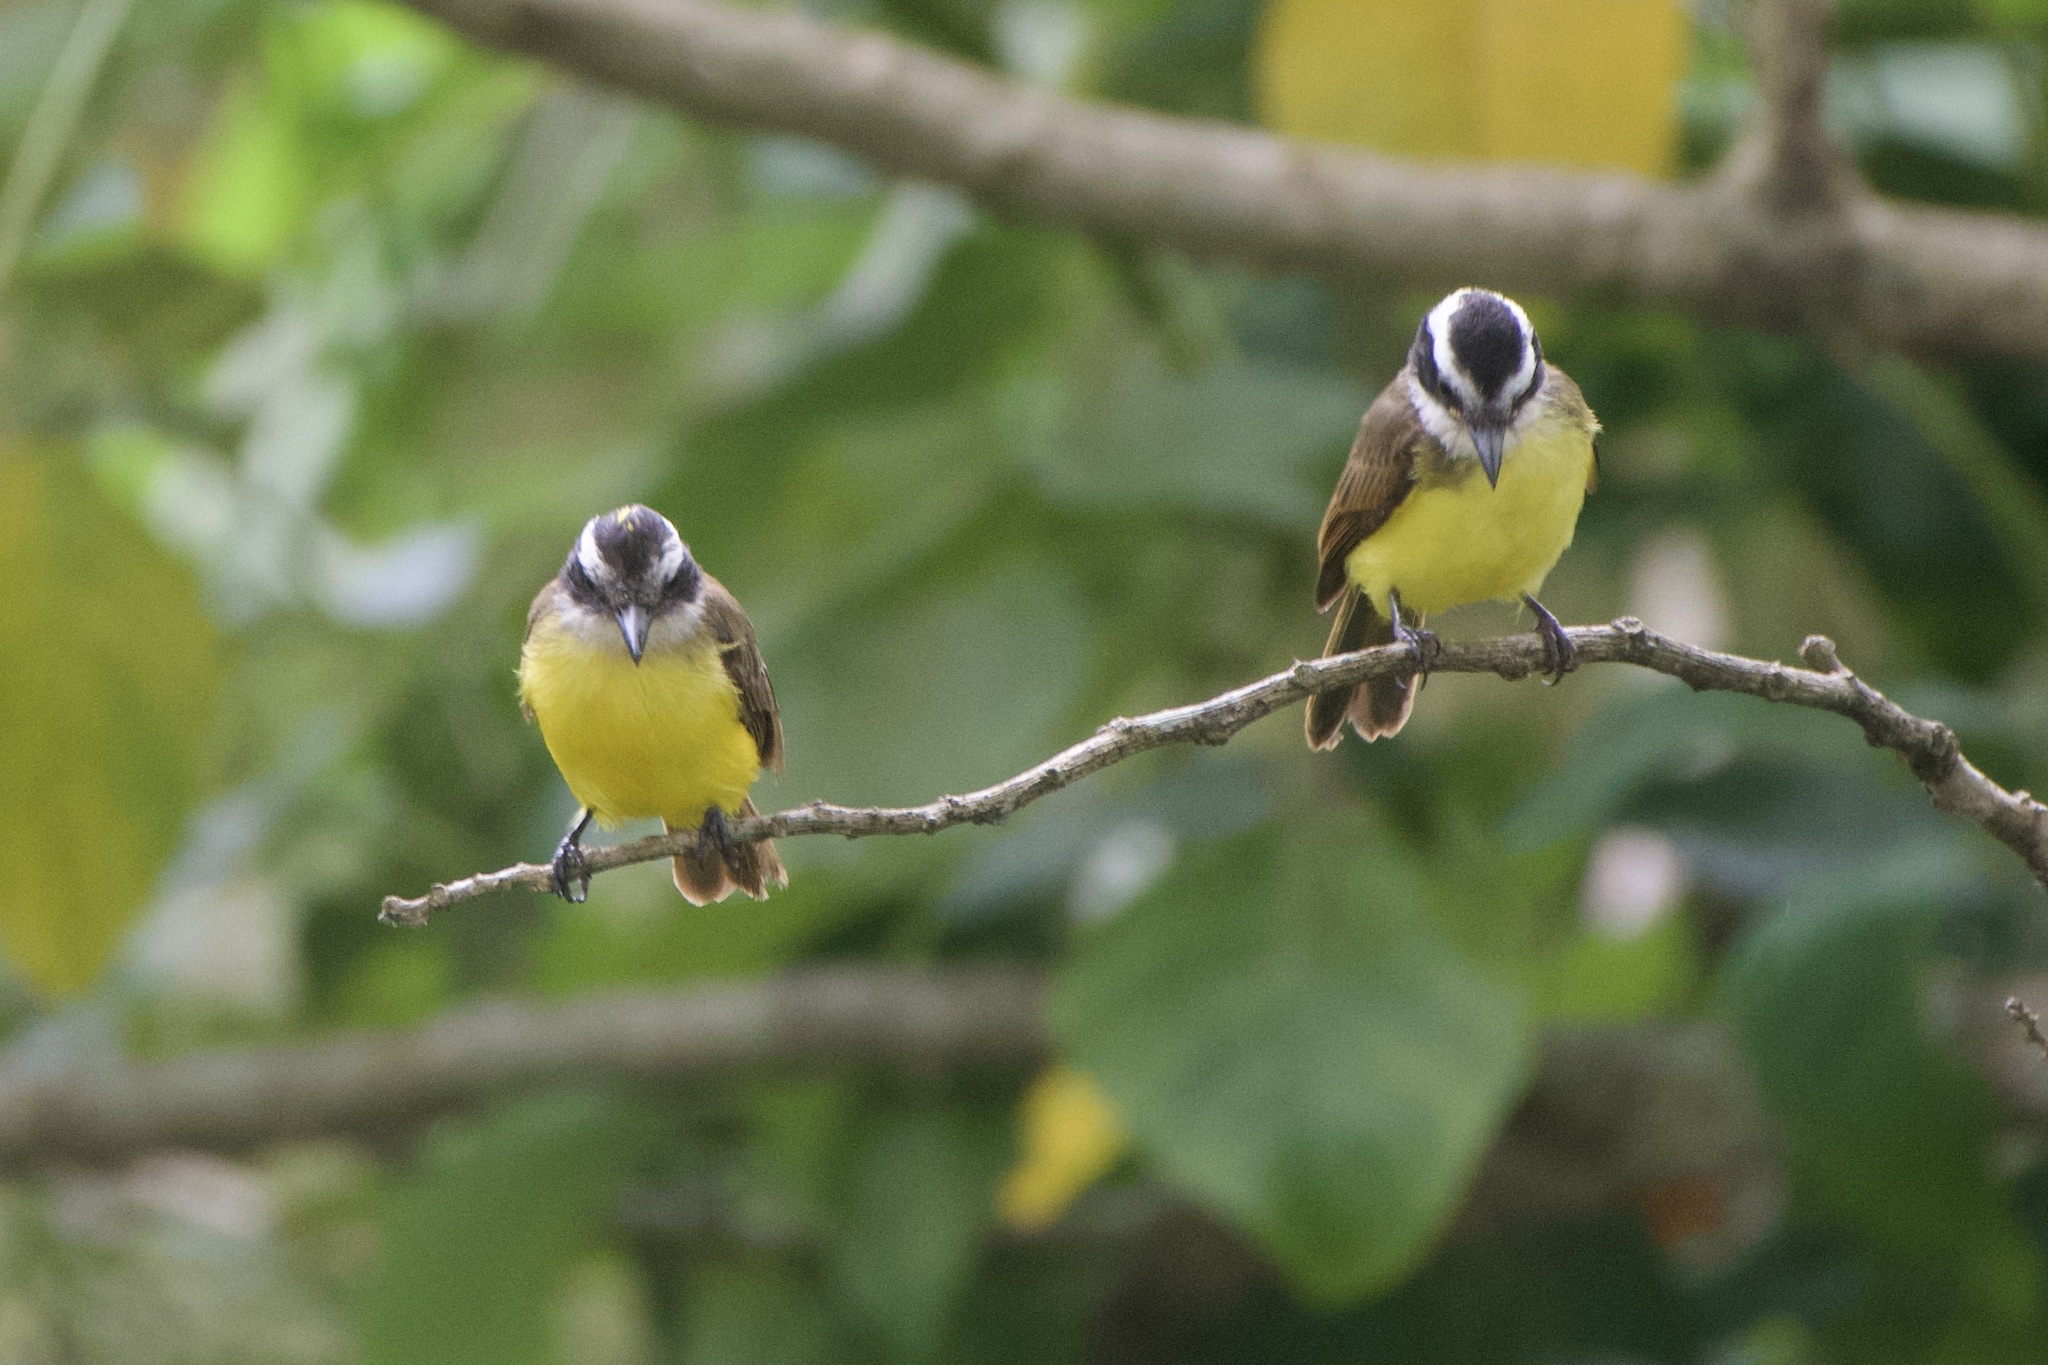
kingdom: Animalia
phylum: Chordata
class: Aves
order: Passeriformes
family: Tyrannidae
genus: Pitangus
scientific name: Pitangus lictor
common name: Lesser kiskadee
